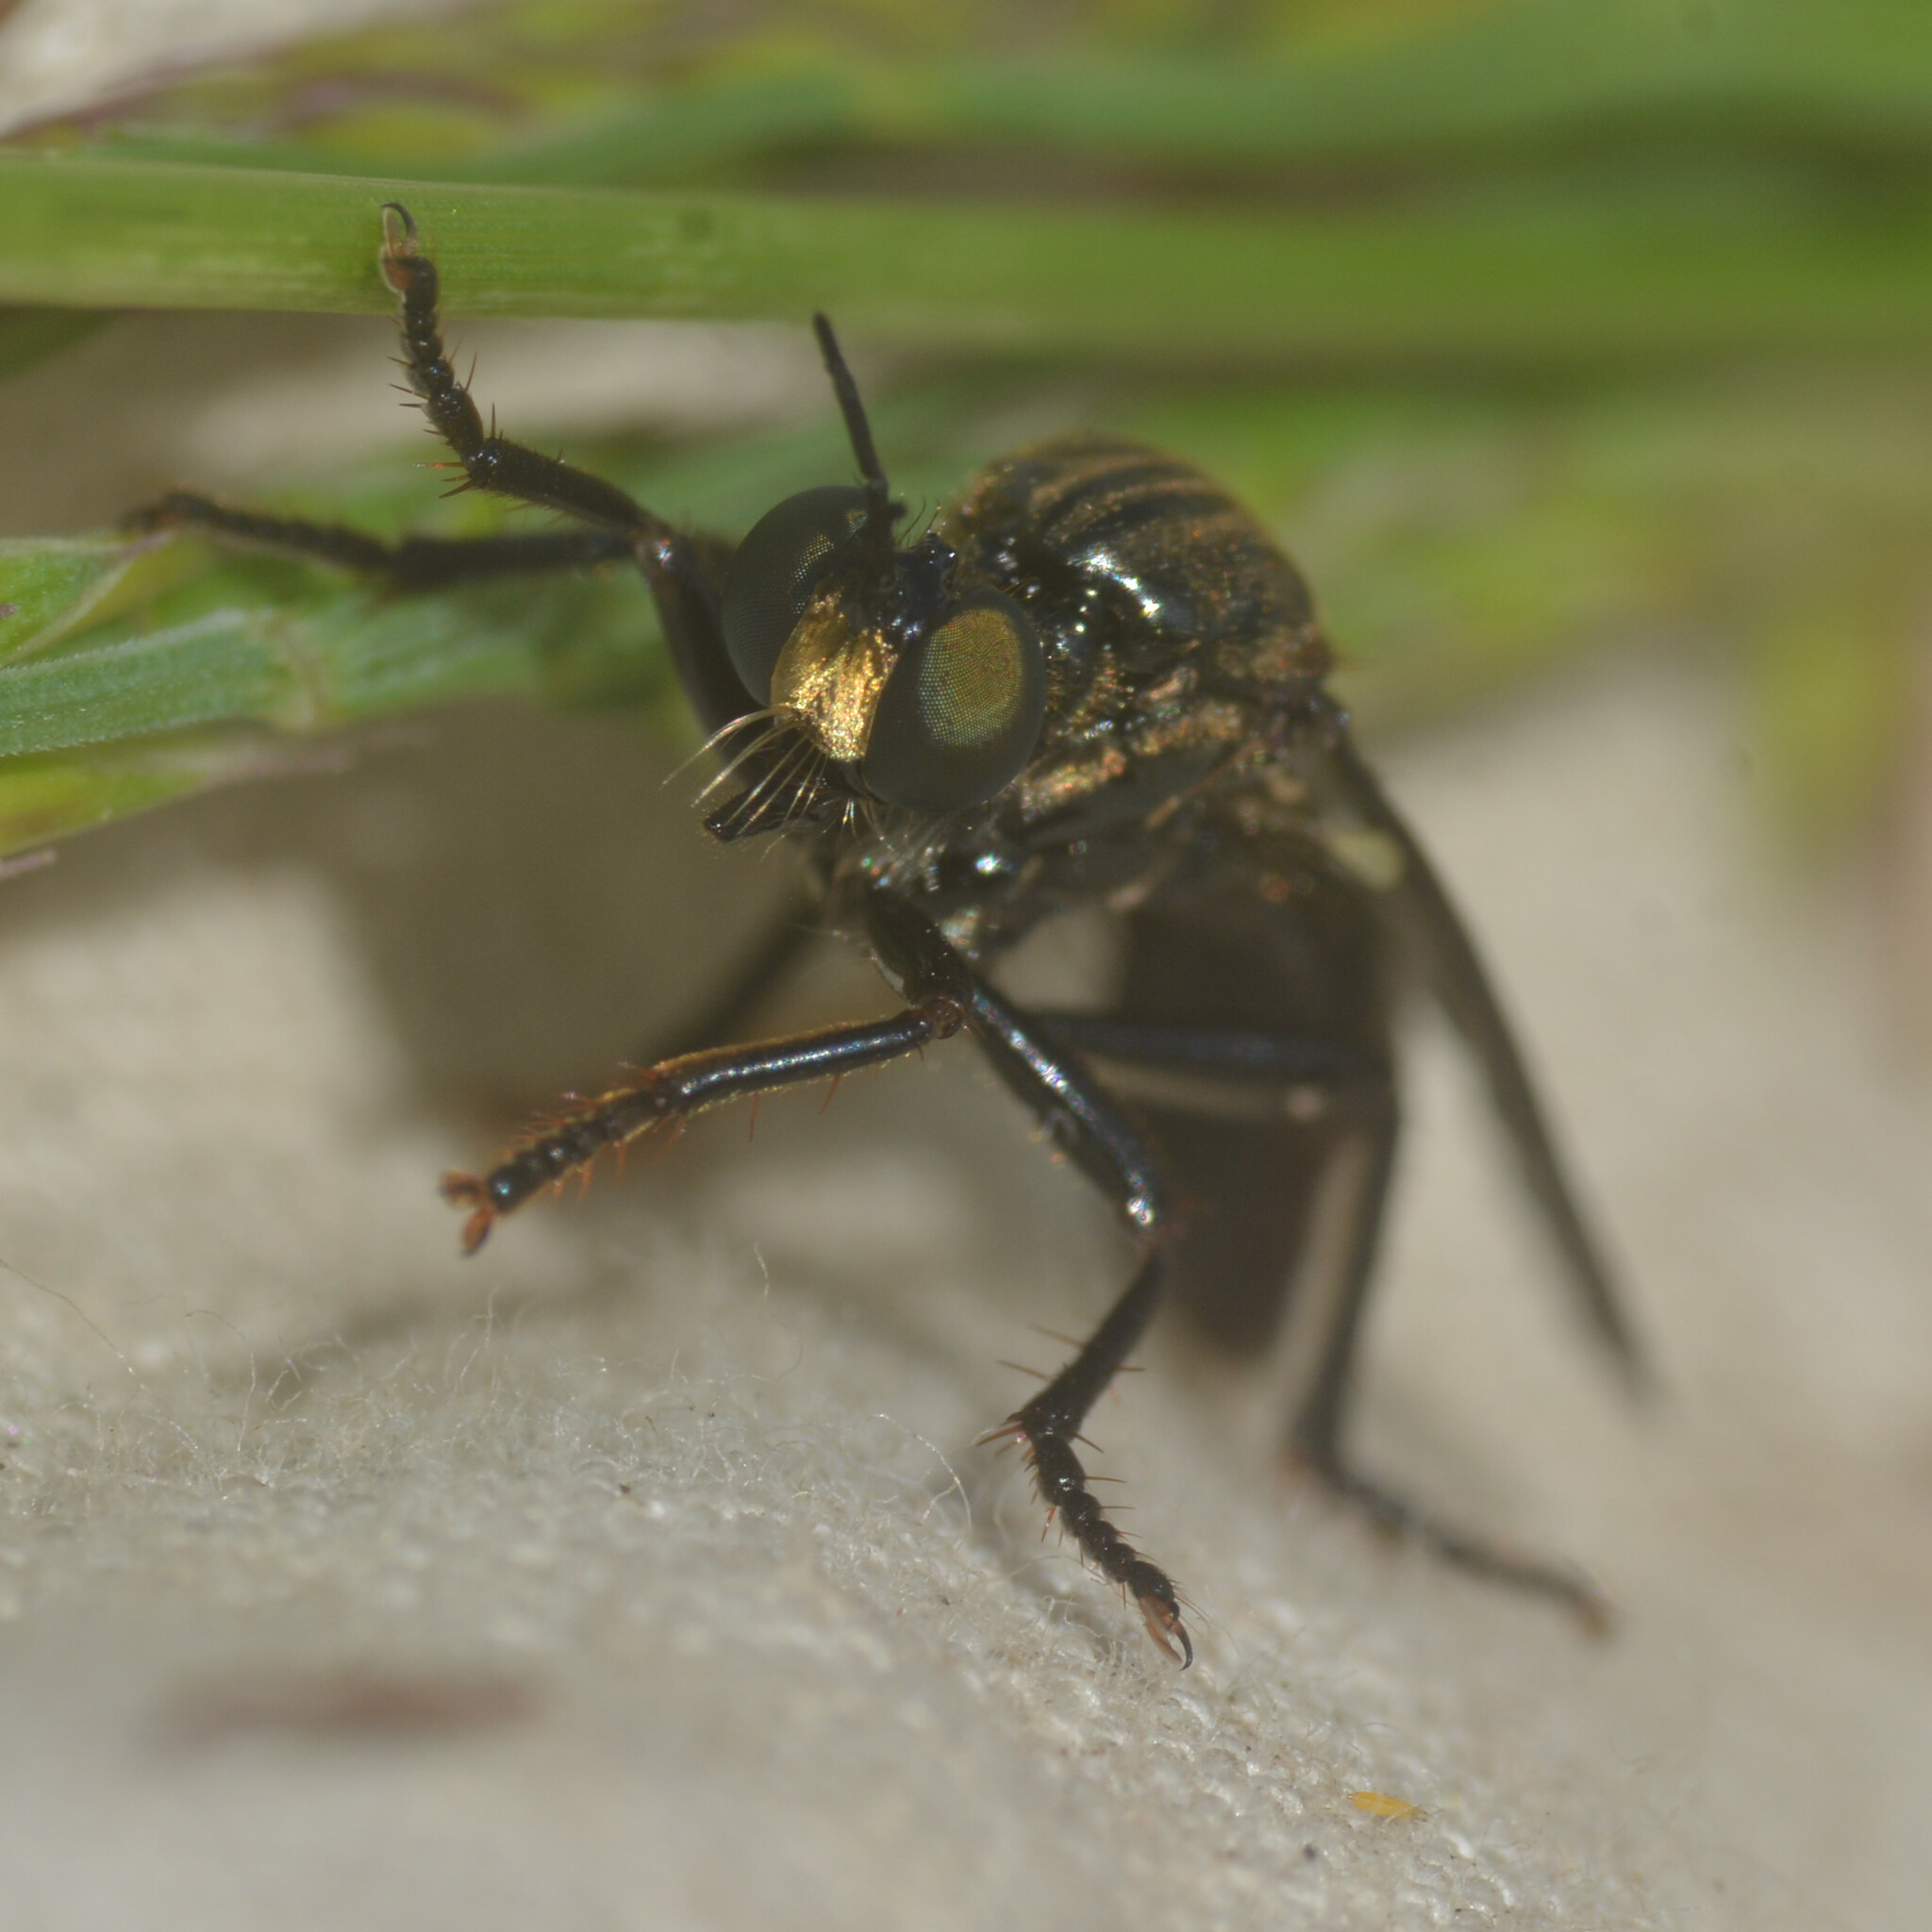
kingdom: Animalia
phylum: Arthropoda
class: Insecta
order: Diptera
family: Asilidae
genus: Dioctria
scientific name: Dioctria atricapilla
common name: Violet black-legged
